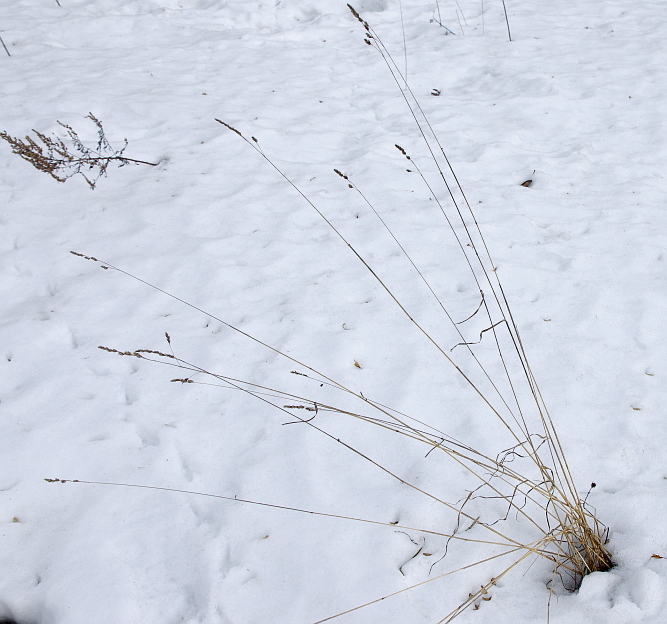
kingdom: Plantae
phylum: Tracheophyta
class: Liliopsida
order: Poales
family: Poaceae
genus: Dactylis
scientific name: Dactylis glomerata
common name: Orchardgrass
